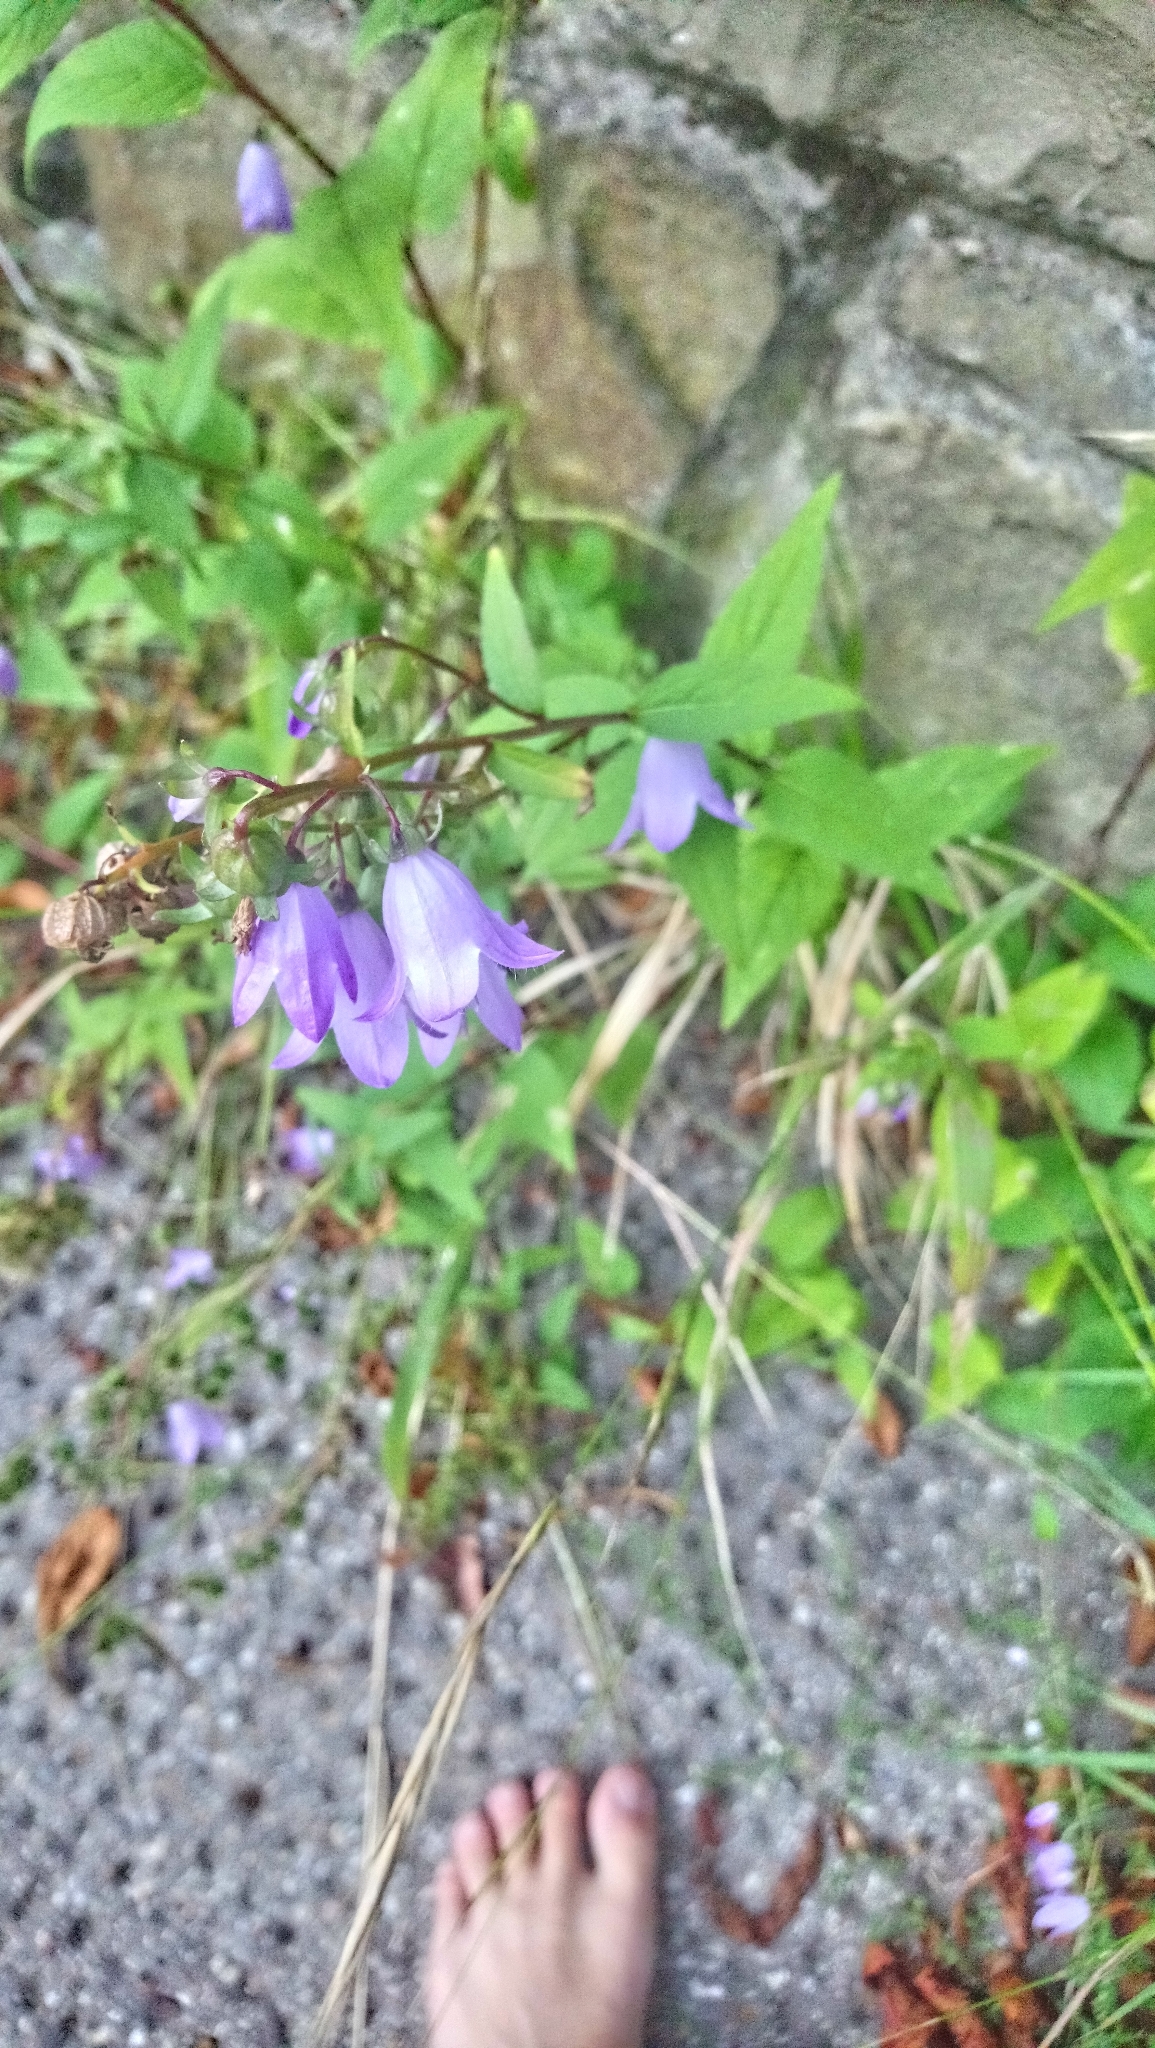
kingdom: Plantae
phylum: Tracheophyta
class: Magnoliopsida
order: Asterales
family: Campanulaceae
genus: Campanula
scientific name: Campanula rapunculoides
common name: Creeping bellflower
